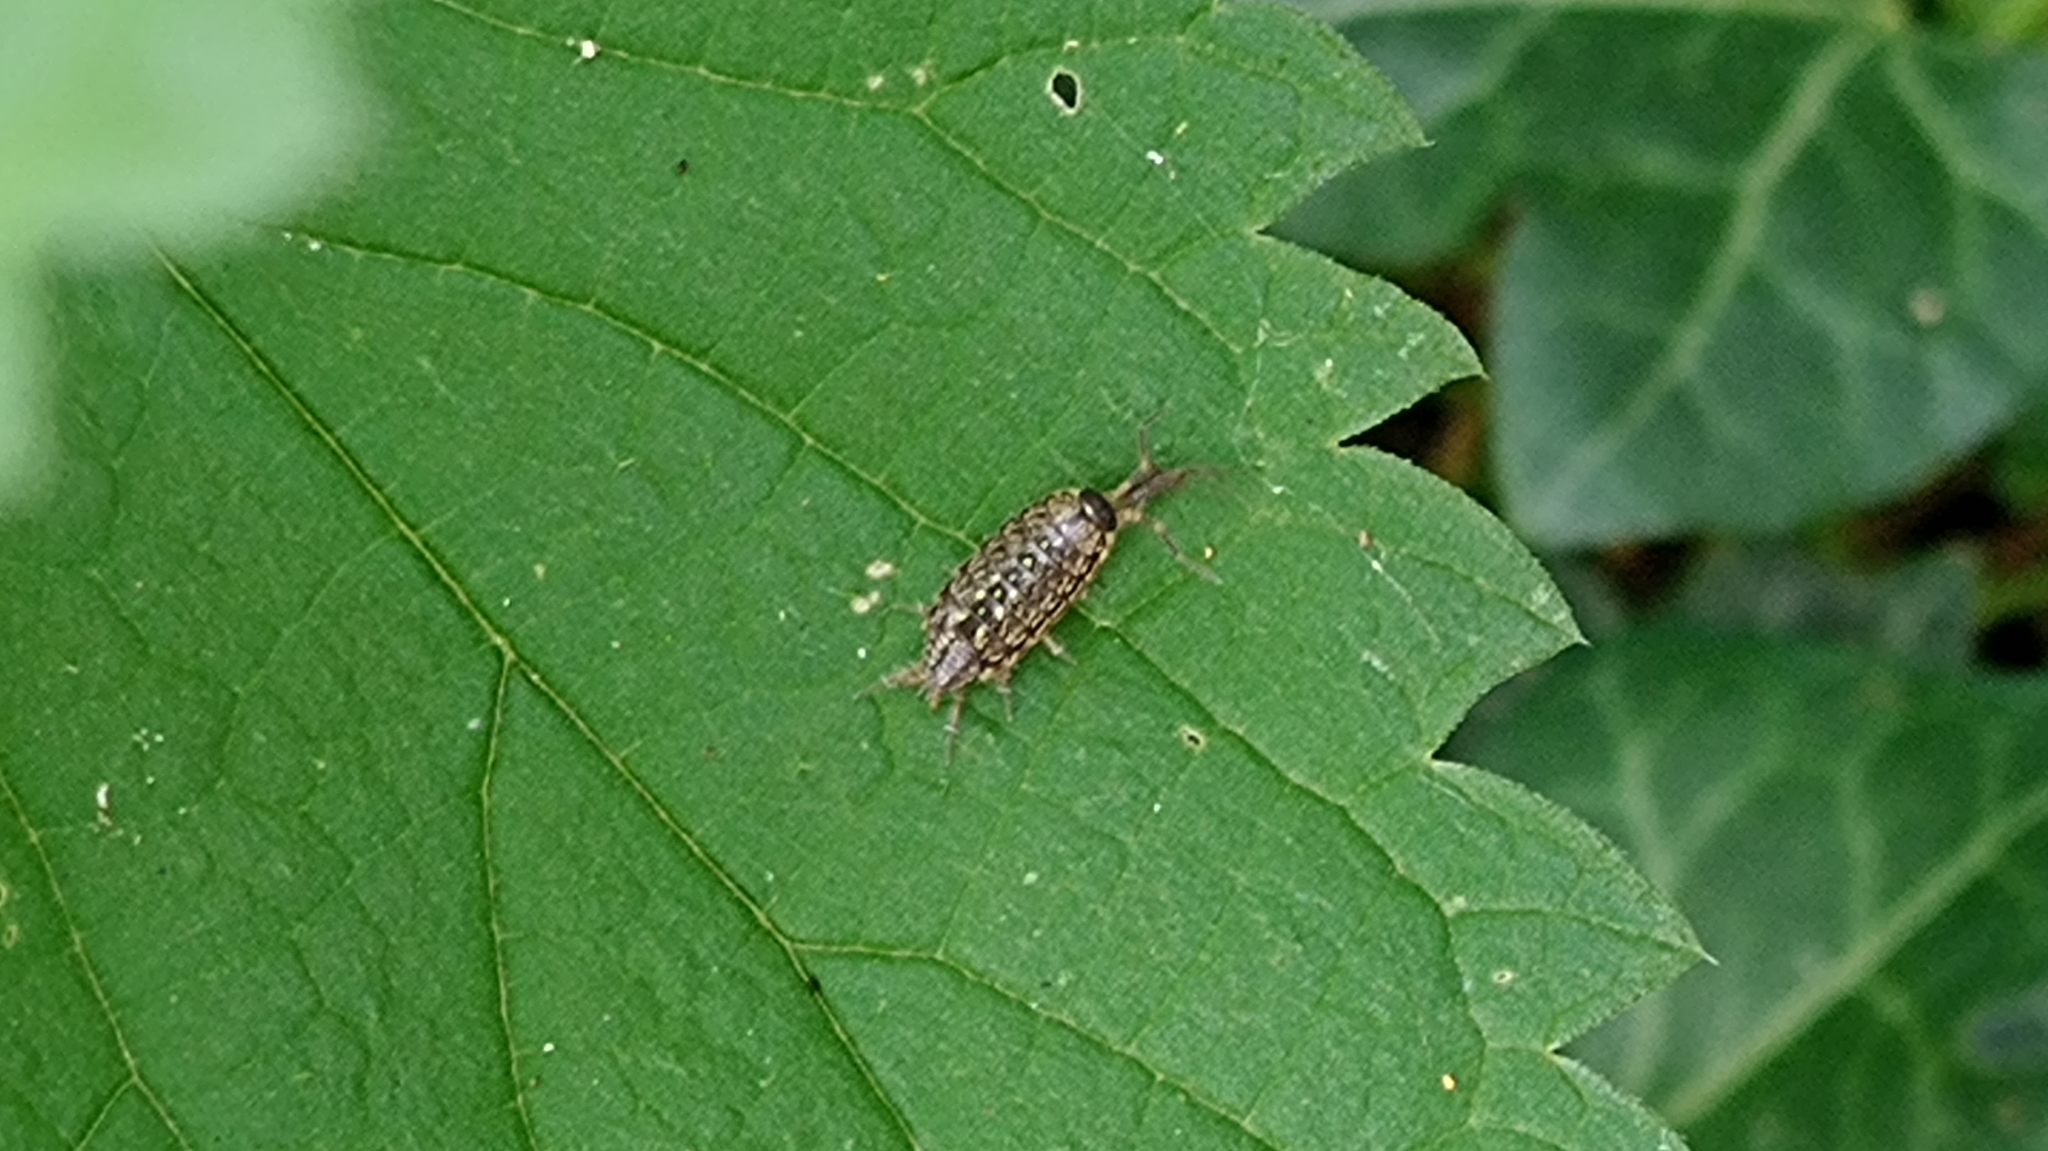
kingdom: Animalia
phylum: Arthropoda
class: Malacostraca
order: Isopoda
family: Philosciidae
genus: Philoscia
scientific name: Philoscia muscorum
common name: Common striped woodlouse
